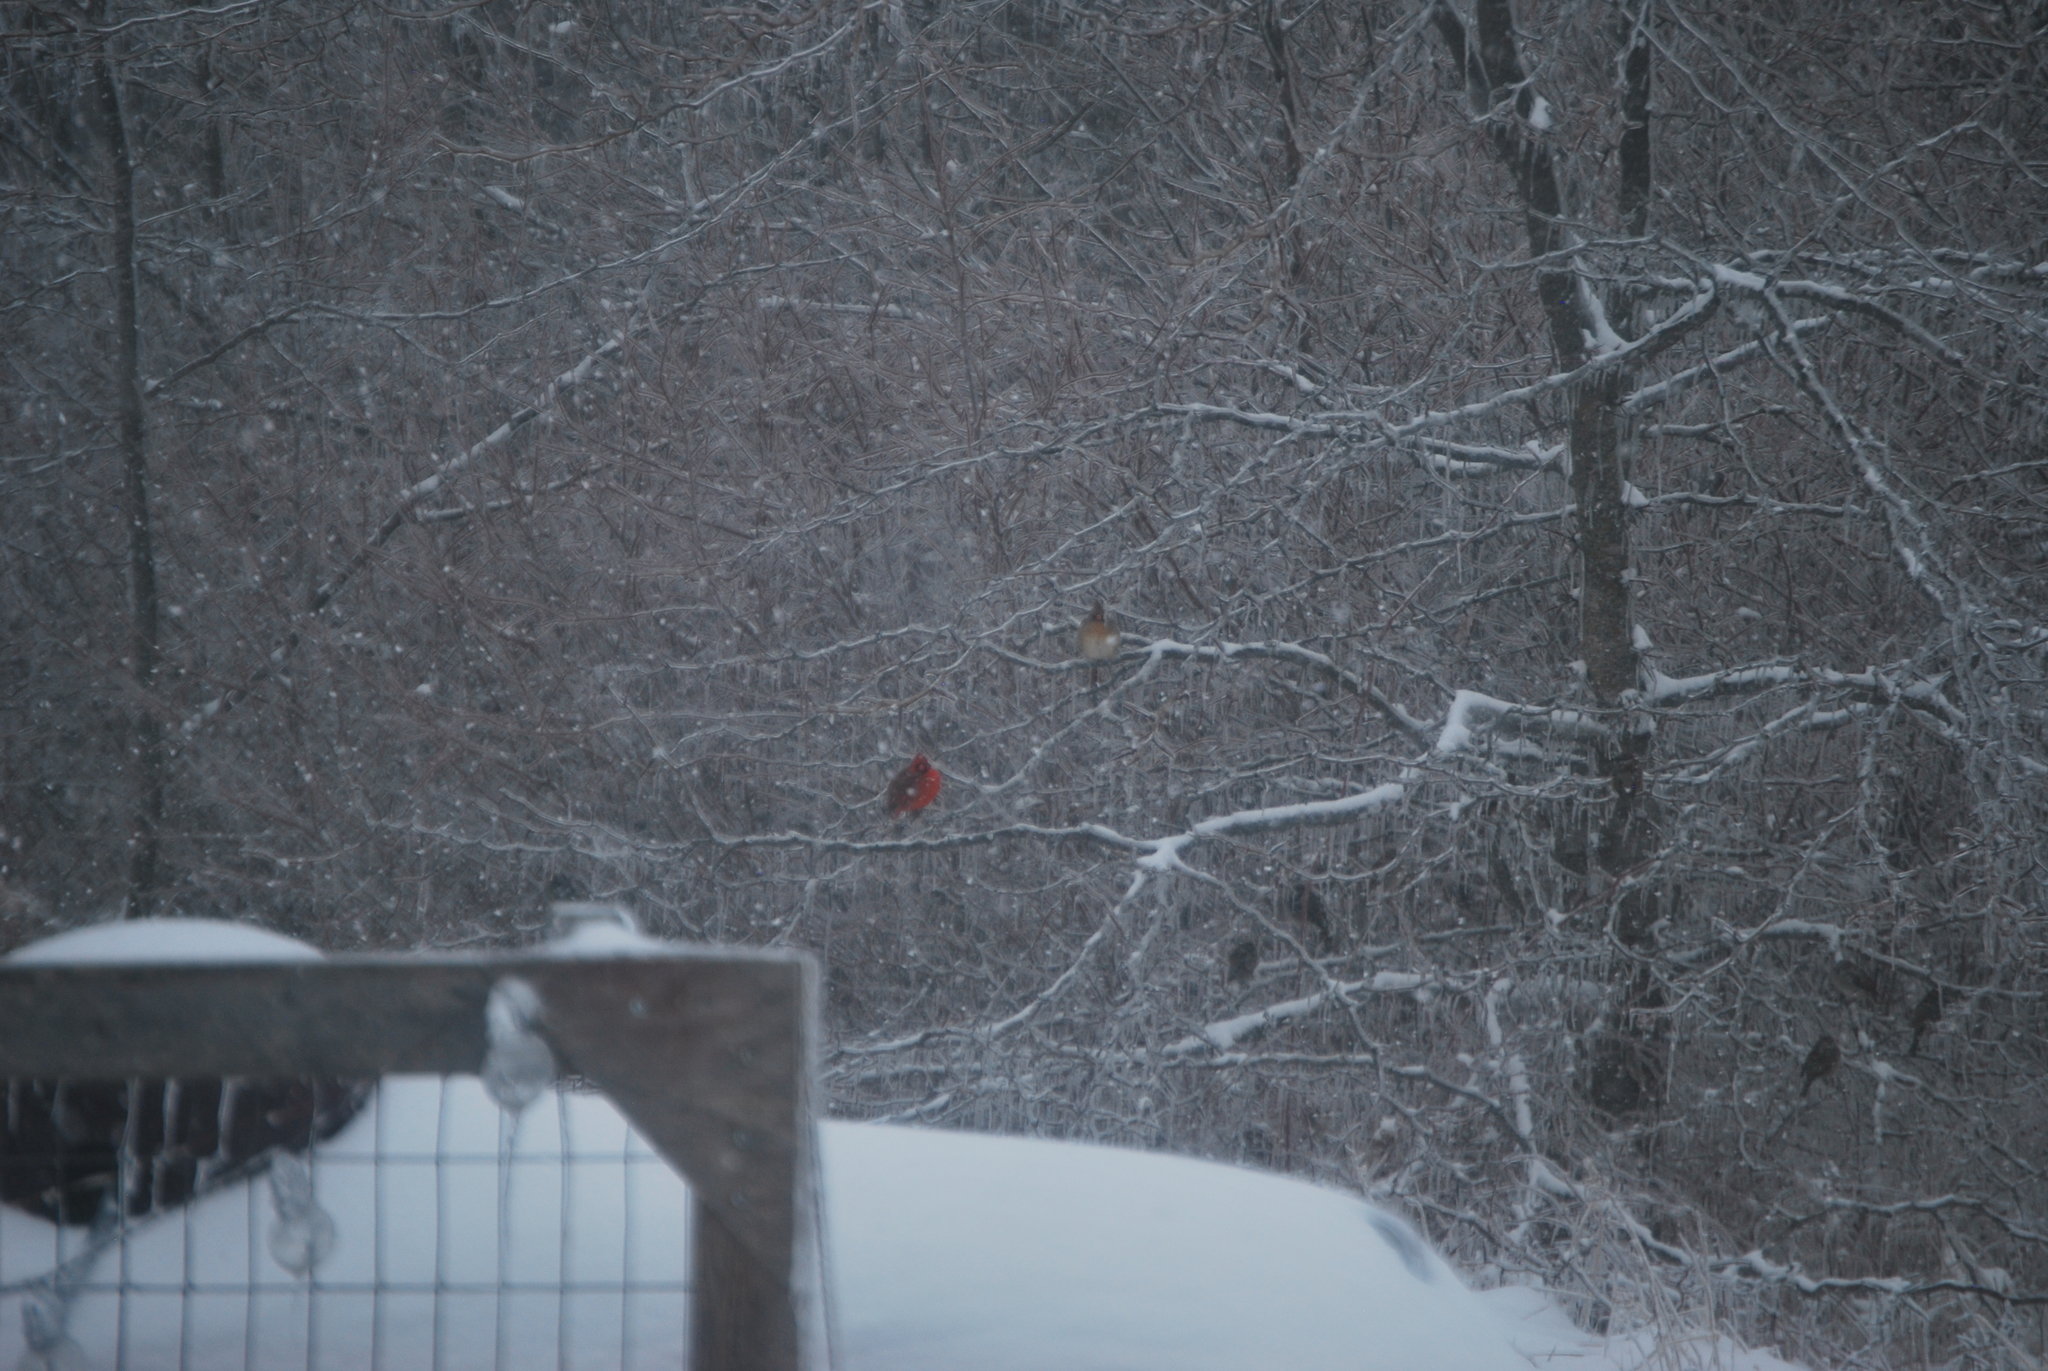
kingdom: Animalia
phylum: Chordata
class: Aves
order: Passeriformes
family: Cardinalidae
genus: Cardinalis
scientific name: Cardinalis cardinalis
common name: Northern cardinal
